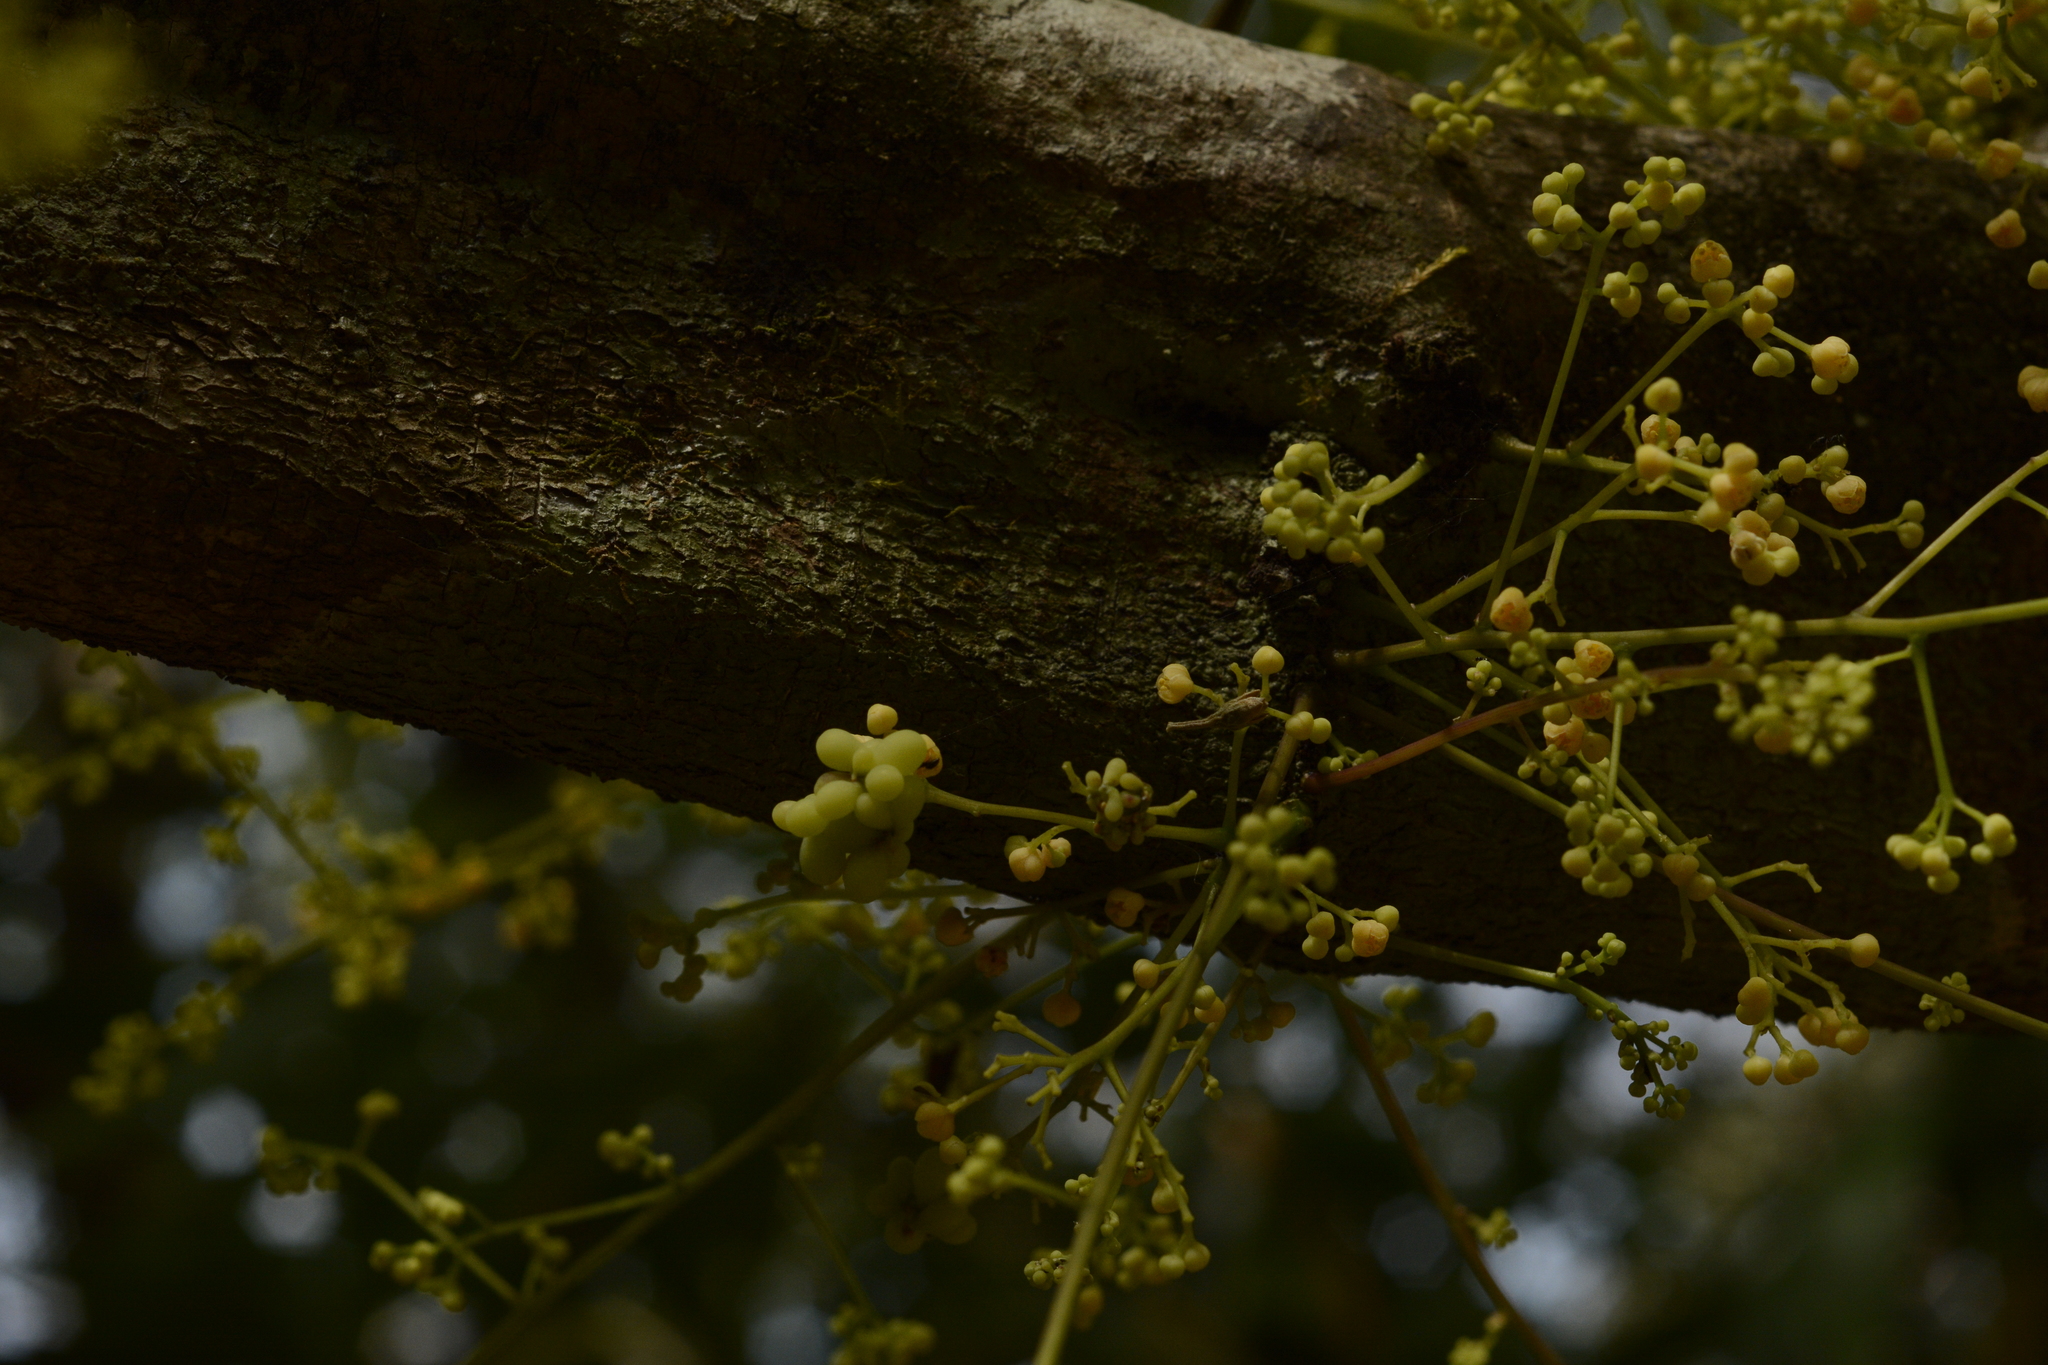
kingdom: Plantae
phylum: Tracheophyta
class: Magnoliopsida
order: Ranunculales
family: Menispermaceae
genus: Diploclisia
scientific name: Diploclisia glaucescens
